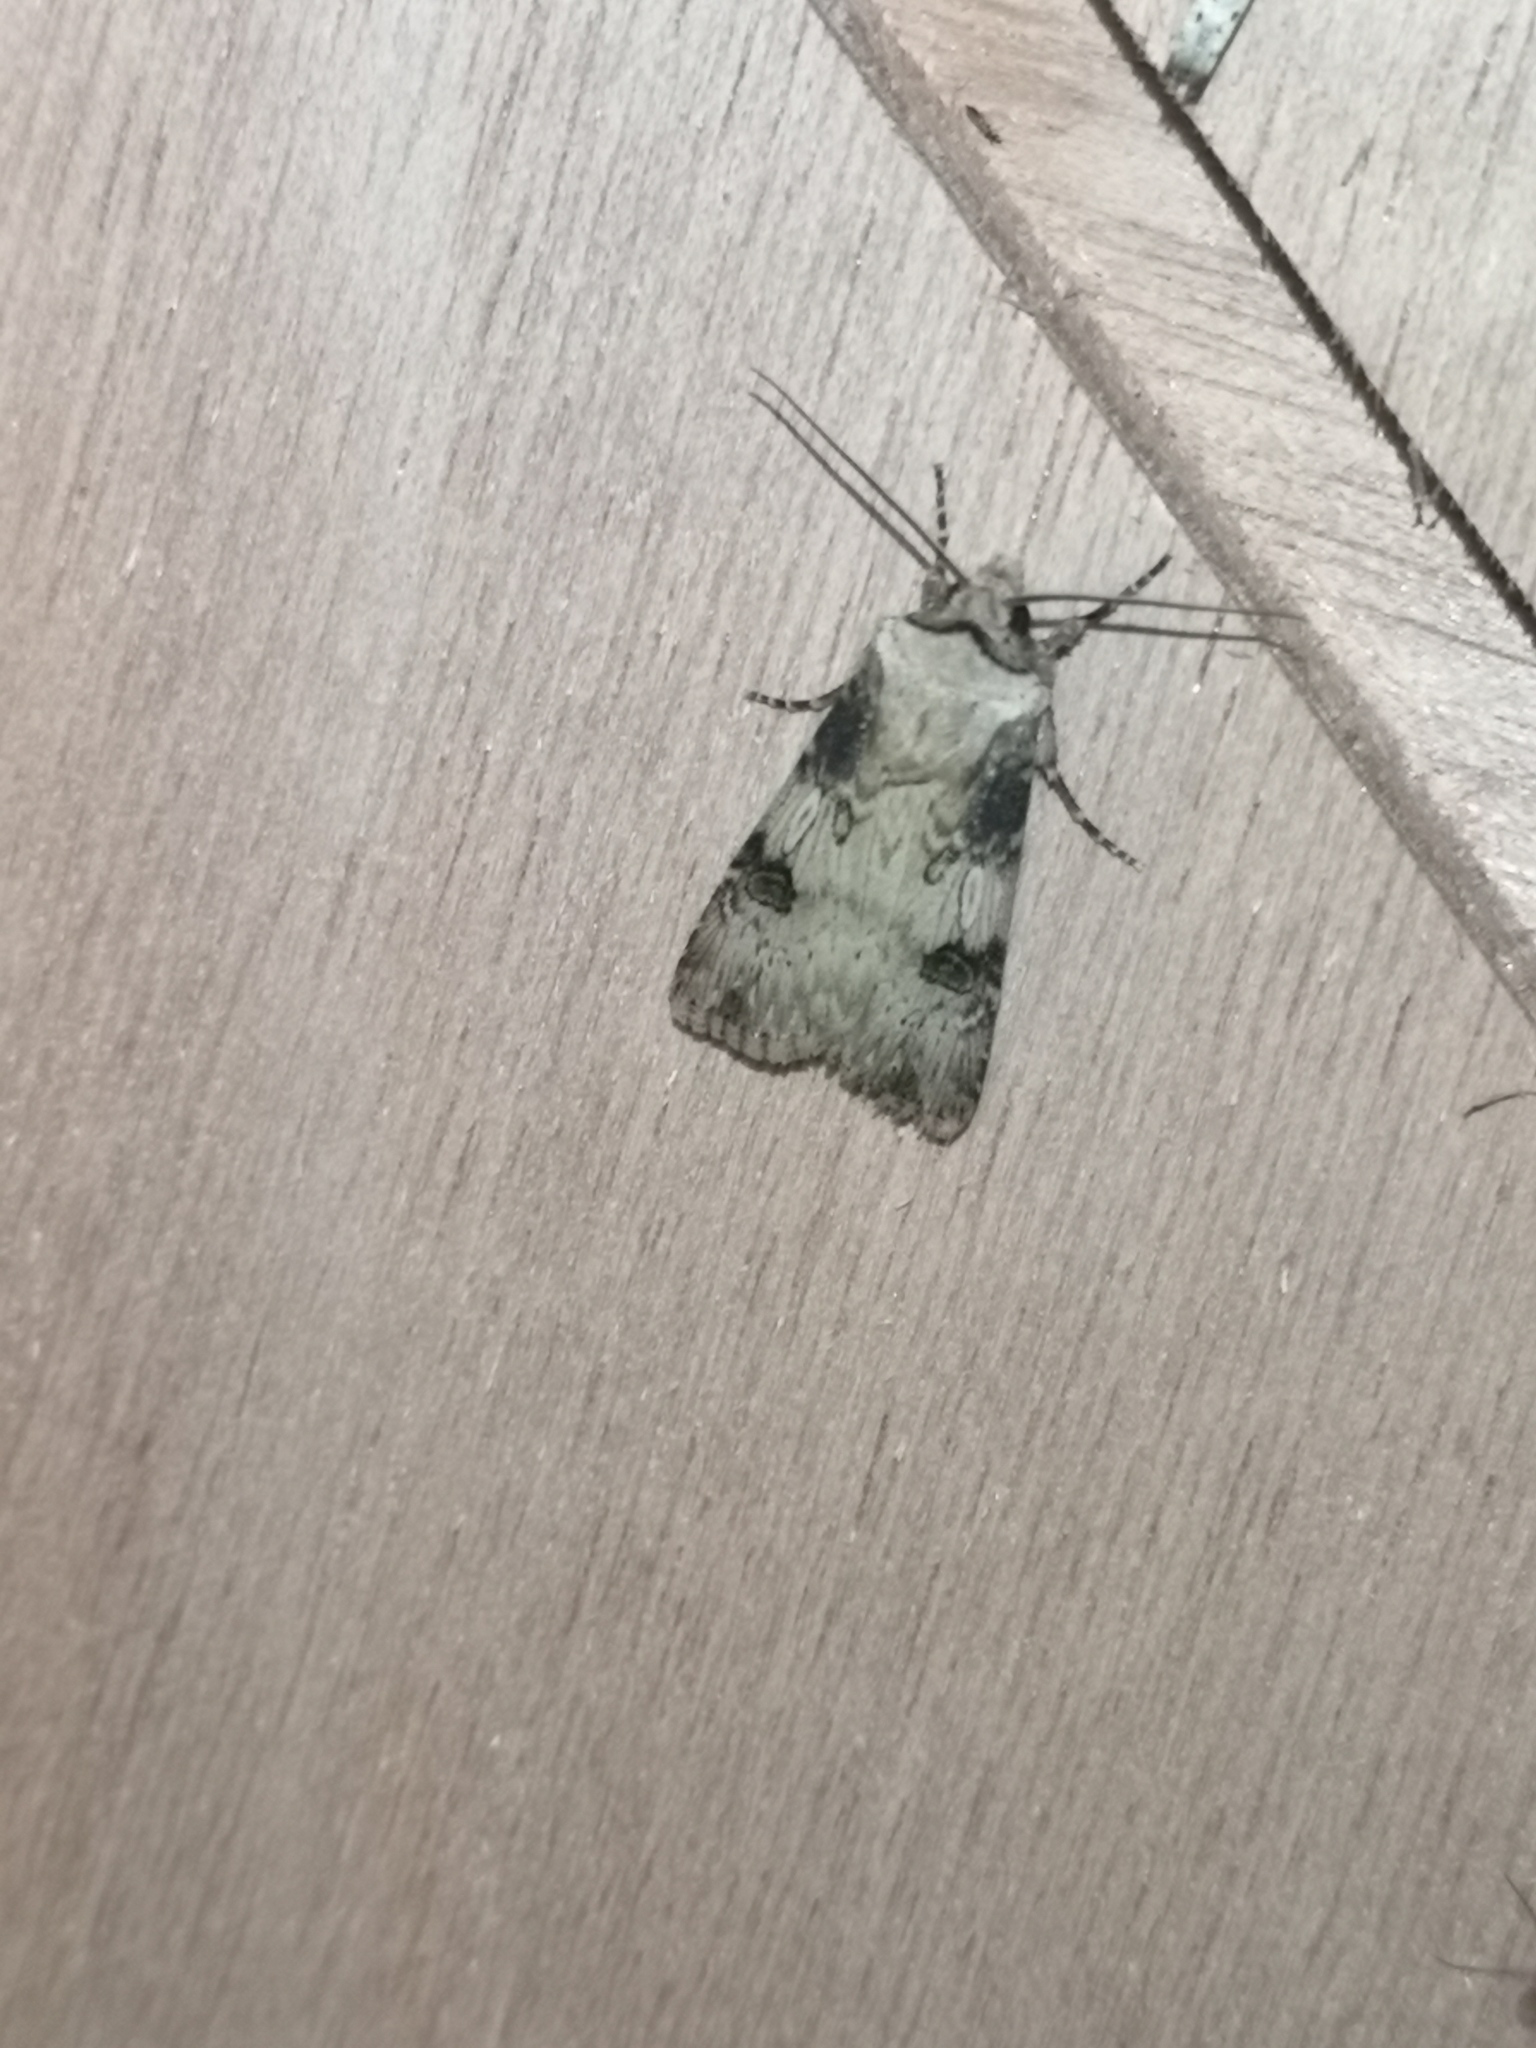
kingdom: Animalia
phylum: Arthropoda
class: Insecta
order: Lepidoptera
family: Noctuidae
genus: Agrotis
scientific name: Agrotis puta
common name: Shuttle-shaped dart
